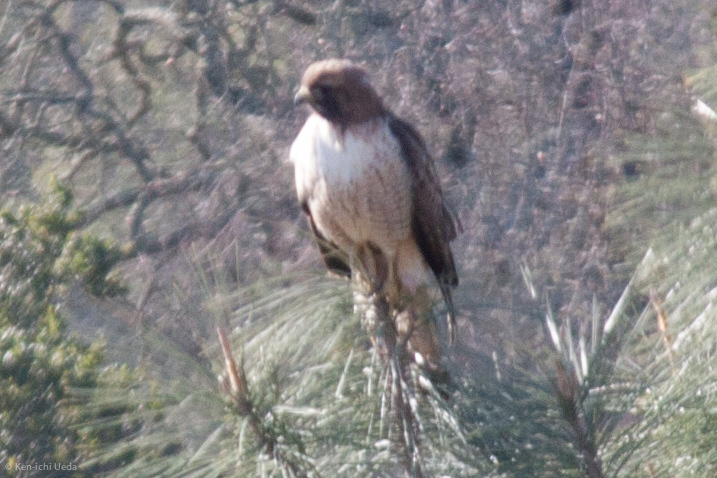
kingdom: Animalia
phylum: Chordata
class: Aves
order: Accipitriformes
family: Accipitridae
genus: Buteo
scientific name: Buteo jamaicensis
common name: Red-tailed hawk
